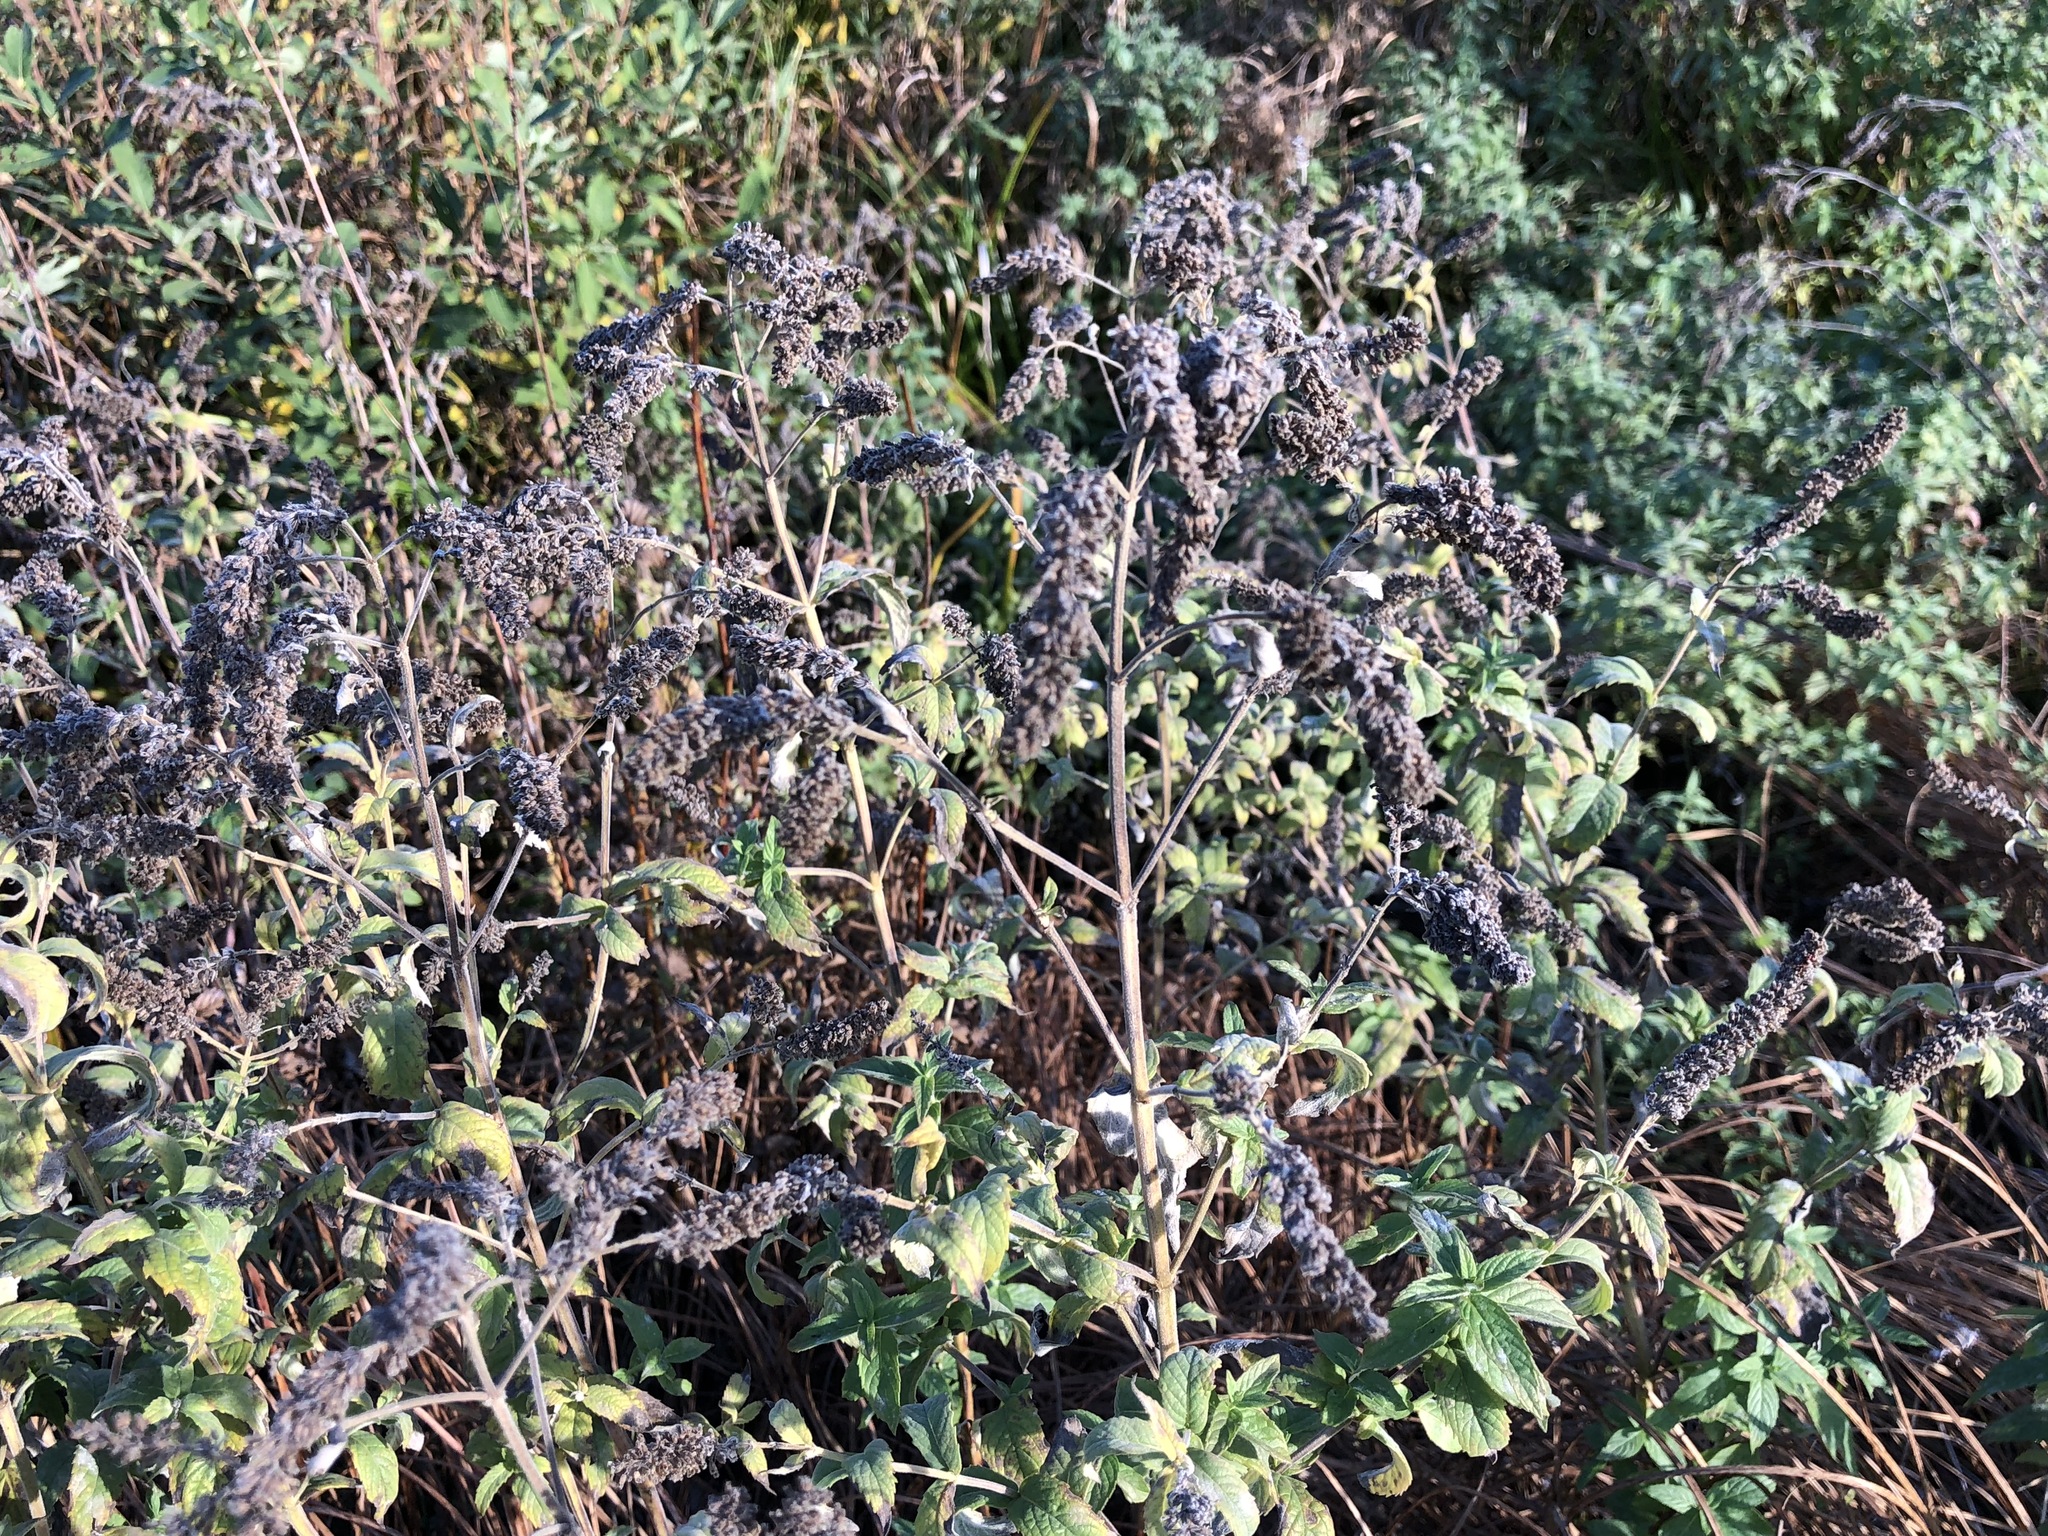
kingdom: Plantae
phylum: Tracheophyta
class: Magnoliopsida
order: Lamiales
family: Lamiaceae
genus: Mentha
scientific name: Mentha longifolia
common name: Horse mint
